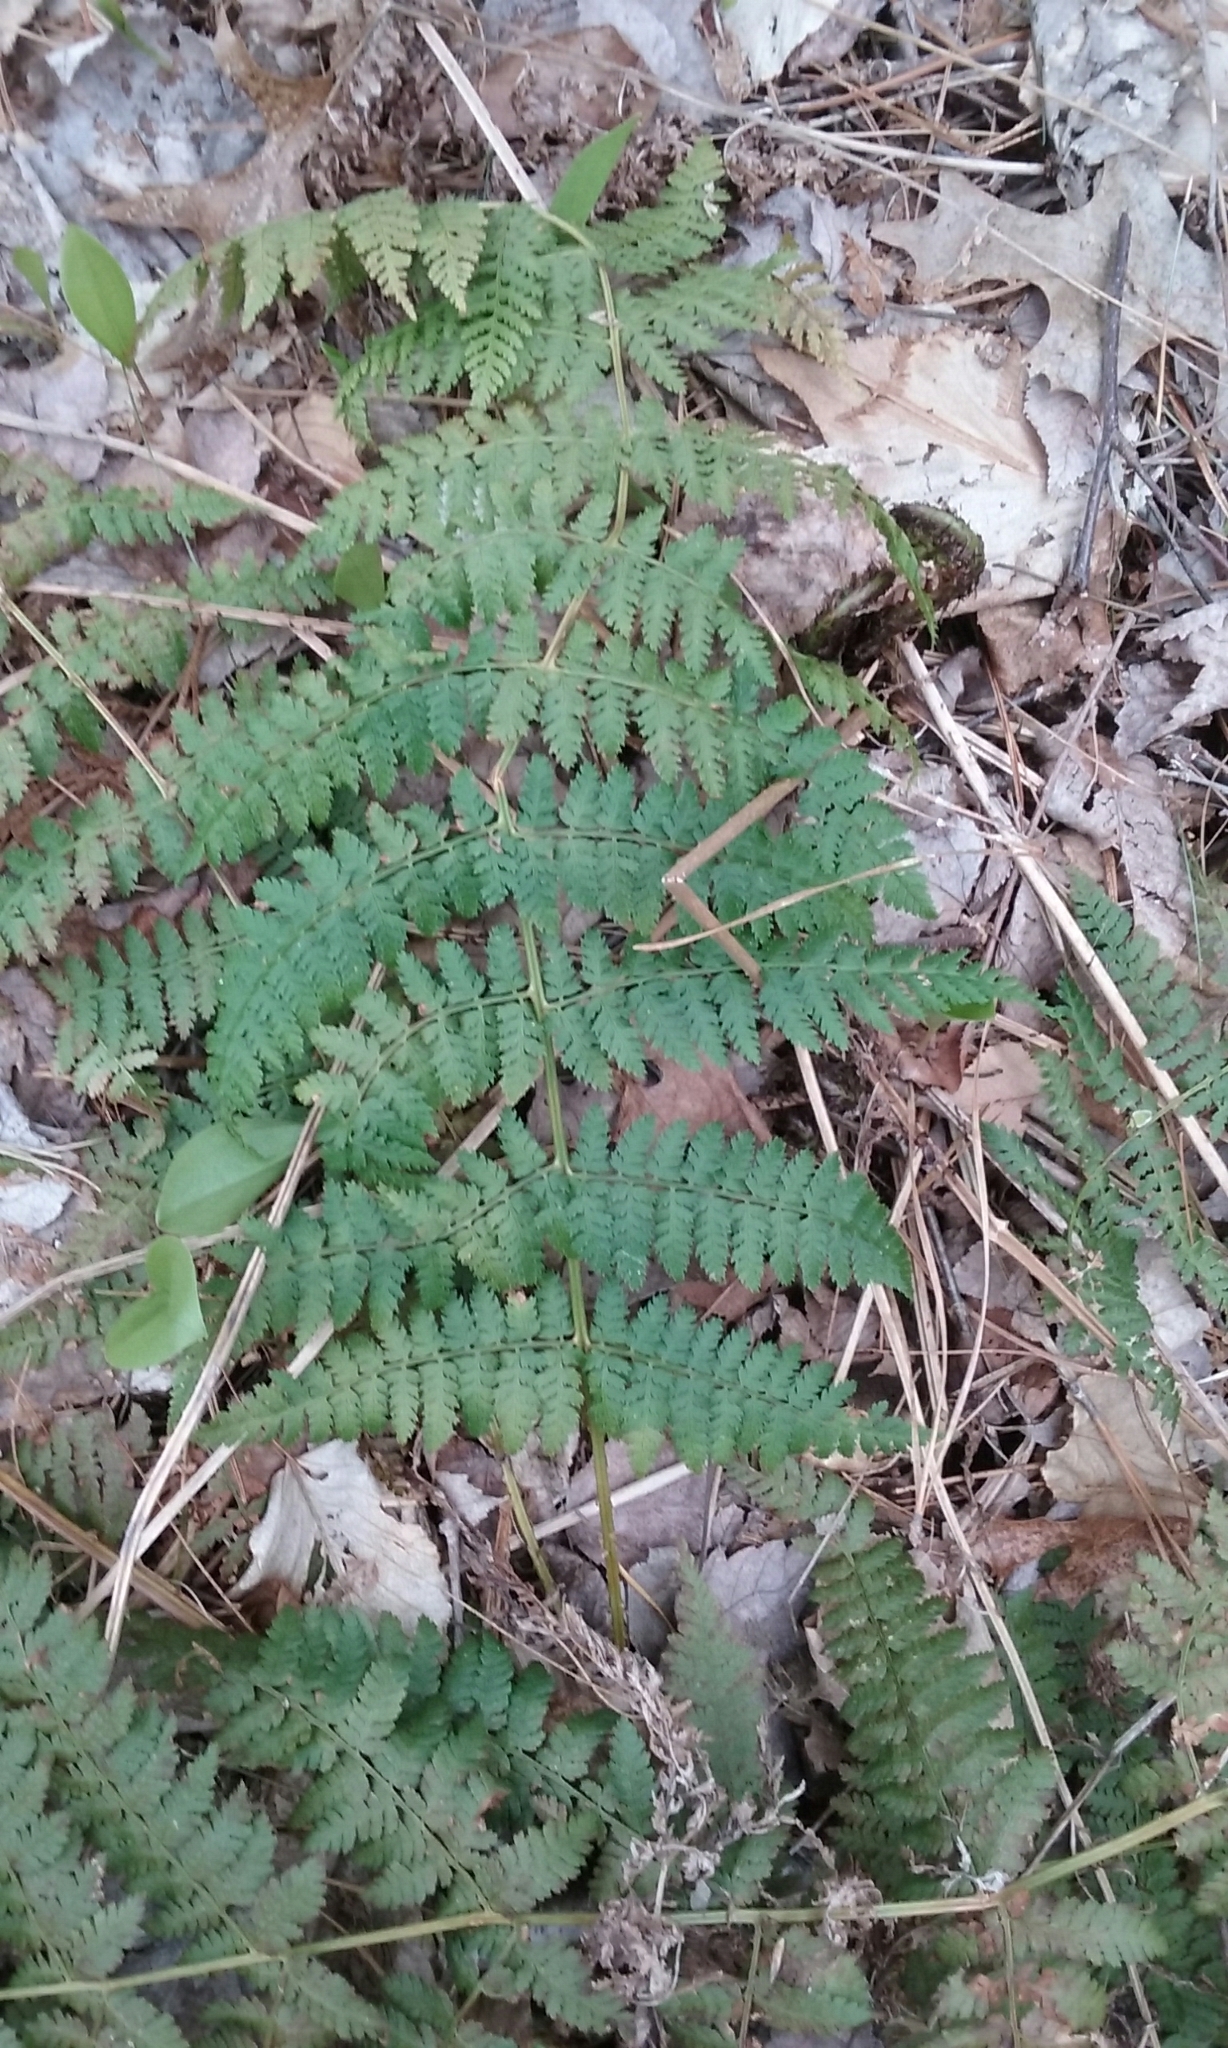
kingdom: Plantae
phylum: Tracheophyta
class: Polypodiopsida
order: Polypodiales
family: Dryopteridaceae
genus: Dryopteris
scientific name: Dryopteris carthusiana
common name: Narrow buckler-fern
